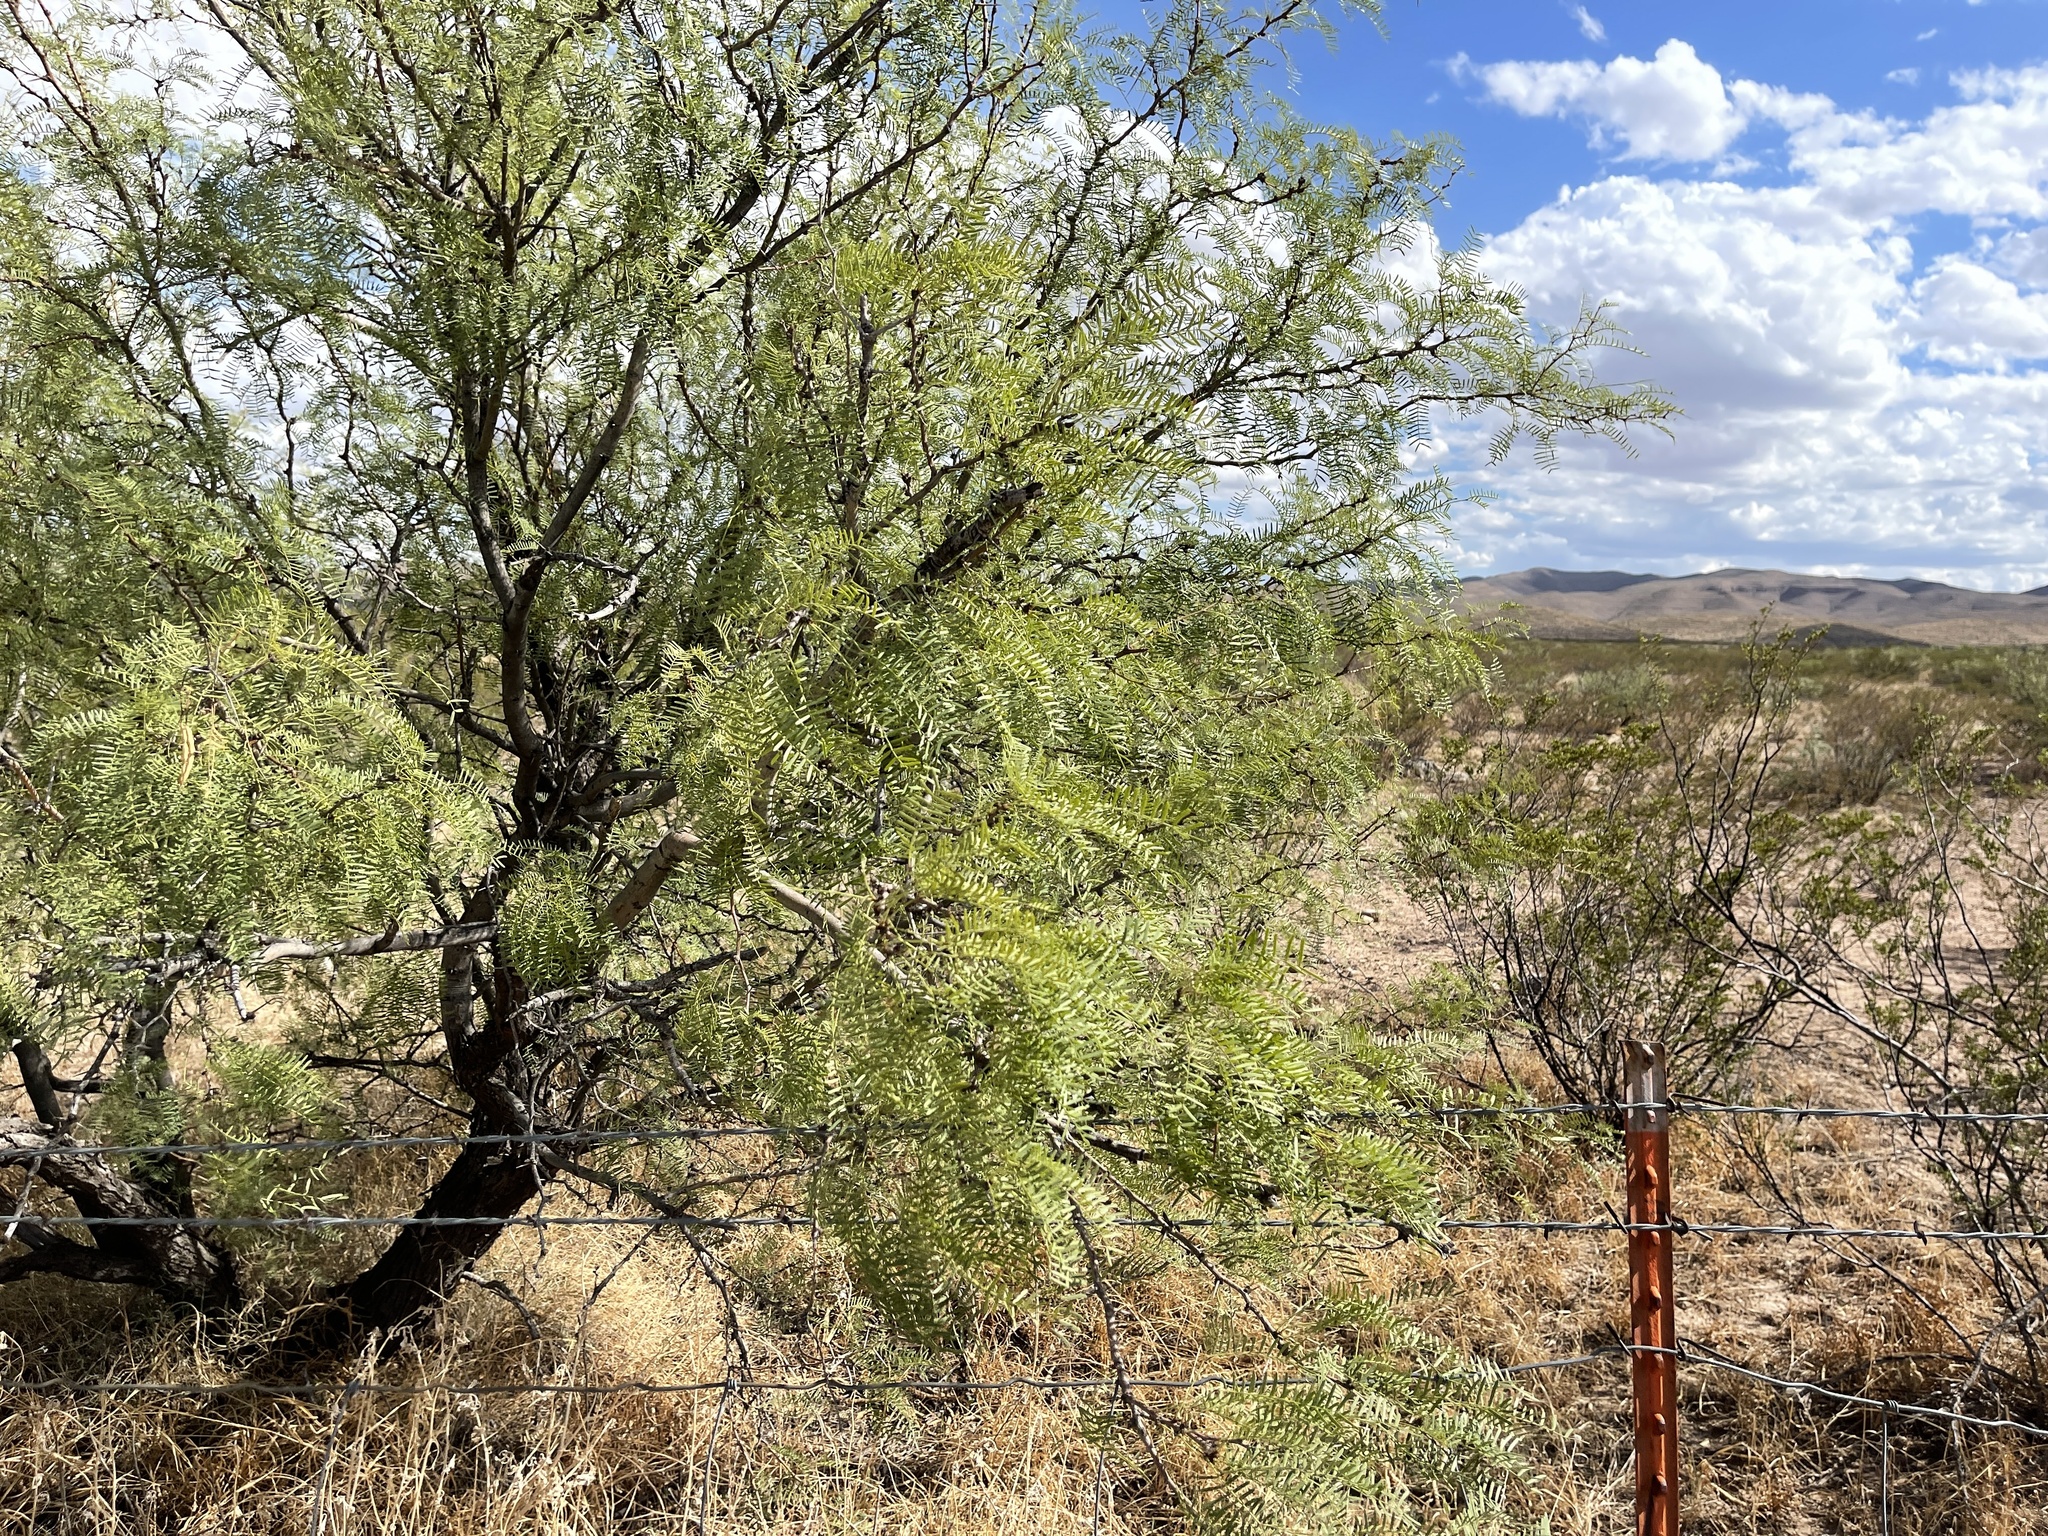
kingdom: Plantae
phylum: Tracheophyta
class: Magnoliopsida
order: Fabales
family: Fabaceae
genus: Prosopis
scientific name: Prosopis glandulosa
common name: Honey mesquite
